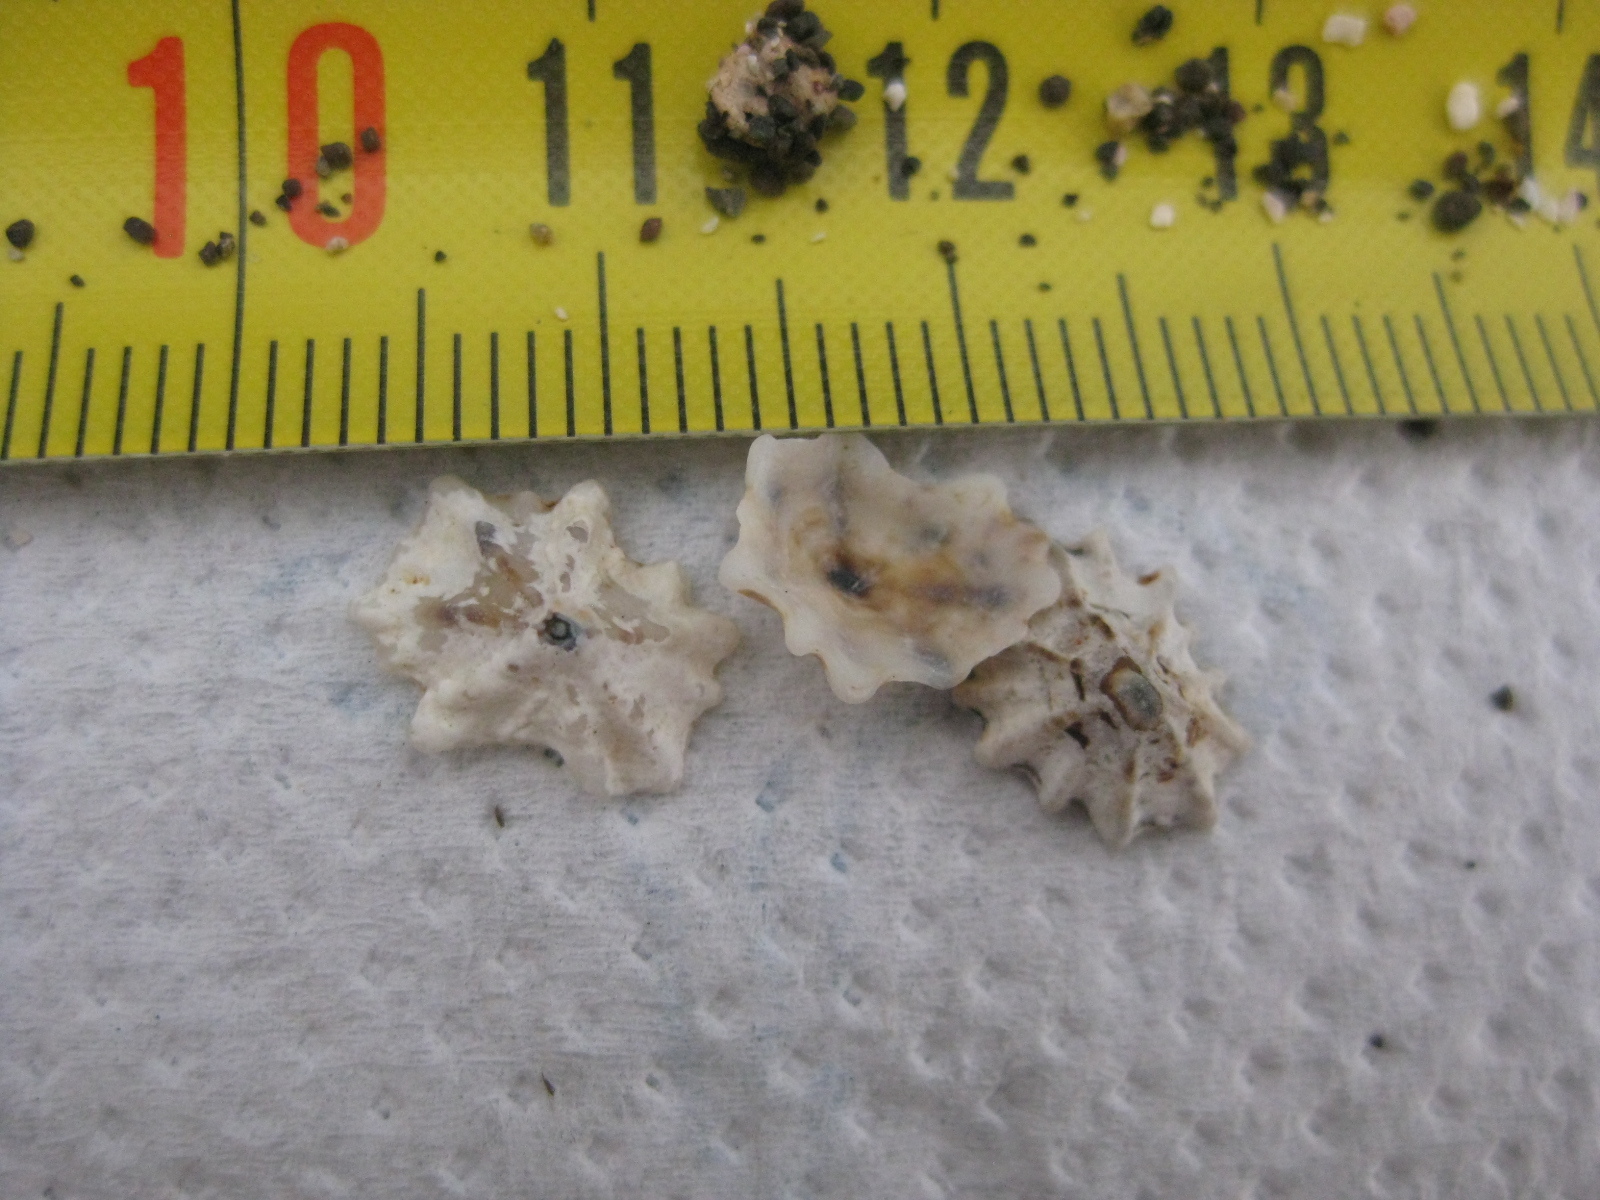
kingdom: Animalia
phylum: Mollusca
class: Gastropoda
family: Lottiidae
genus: Patelloida
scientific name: Patelloida corticata
